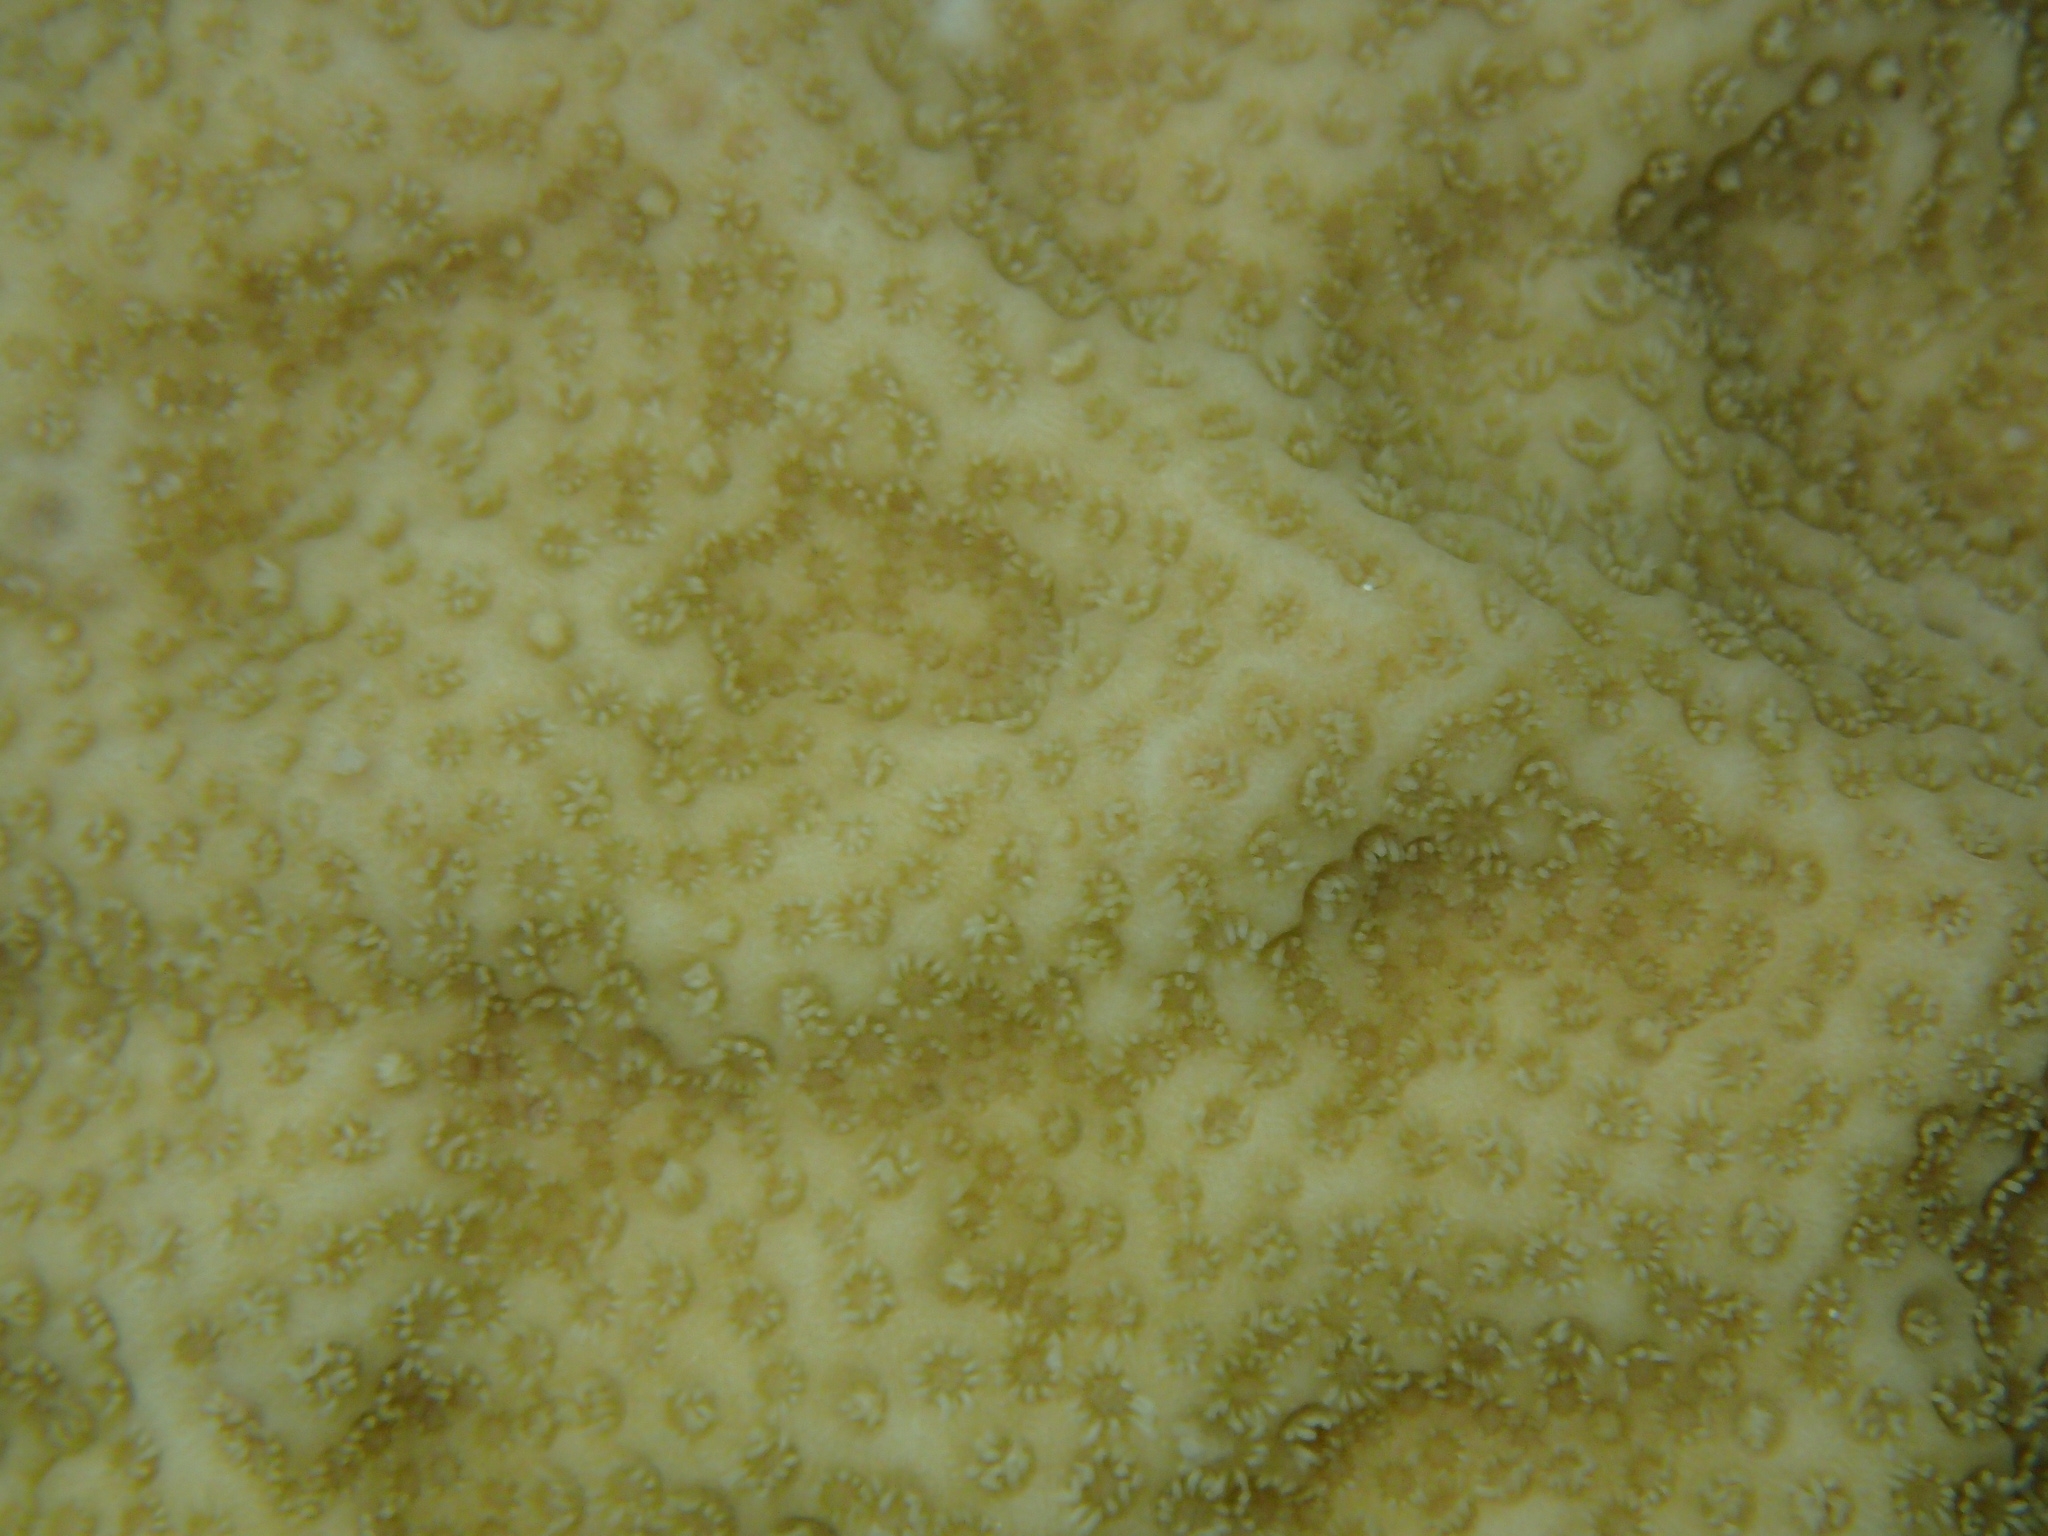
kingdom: Animalia
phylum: Cnidaria
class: Anthozoa
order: Scleractinia
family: Poritidae
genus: Porites
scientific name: Porites astreoides
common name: Mustard hill coral
